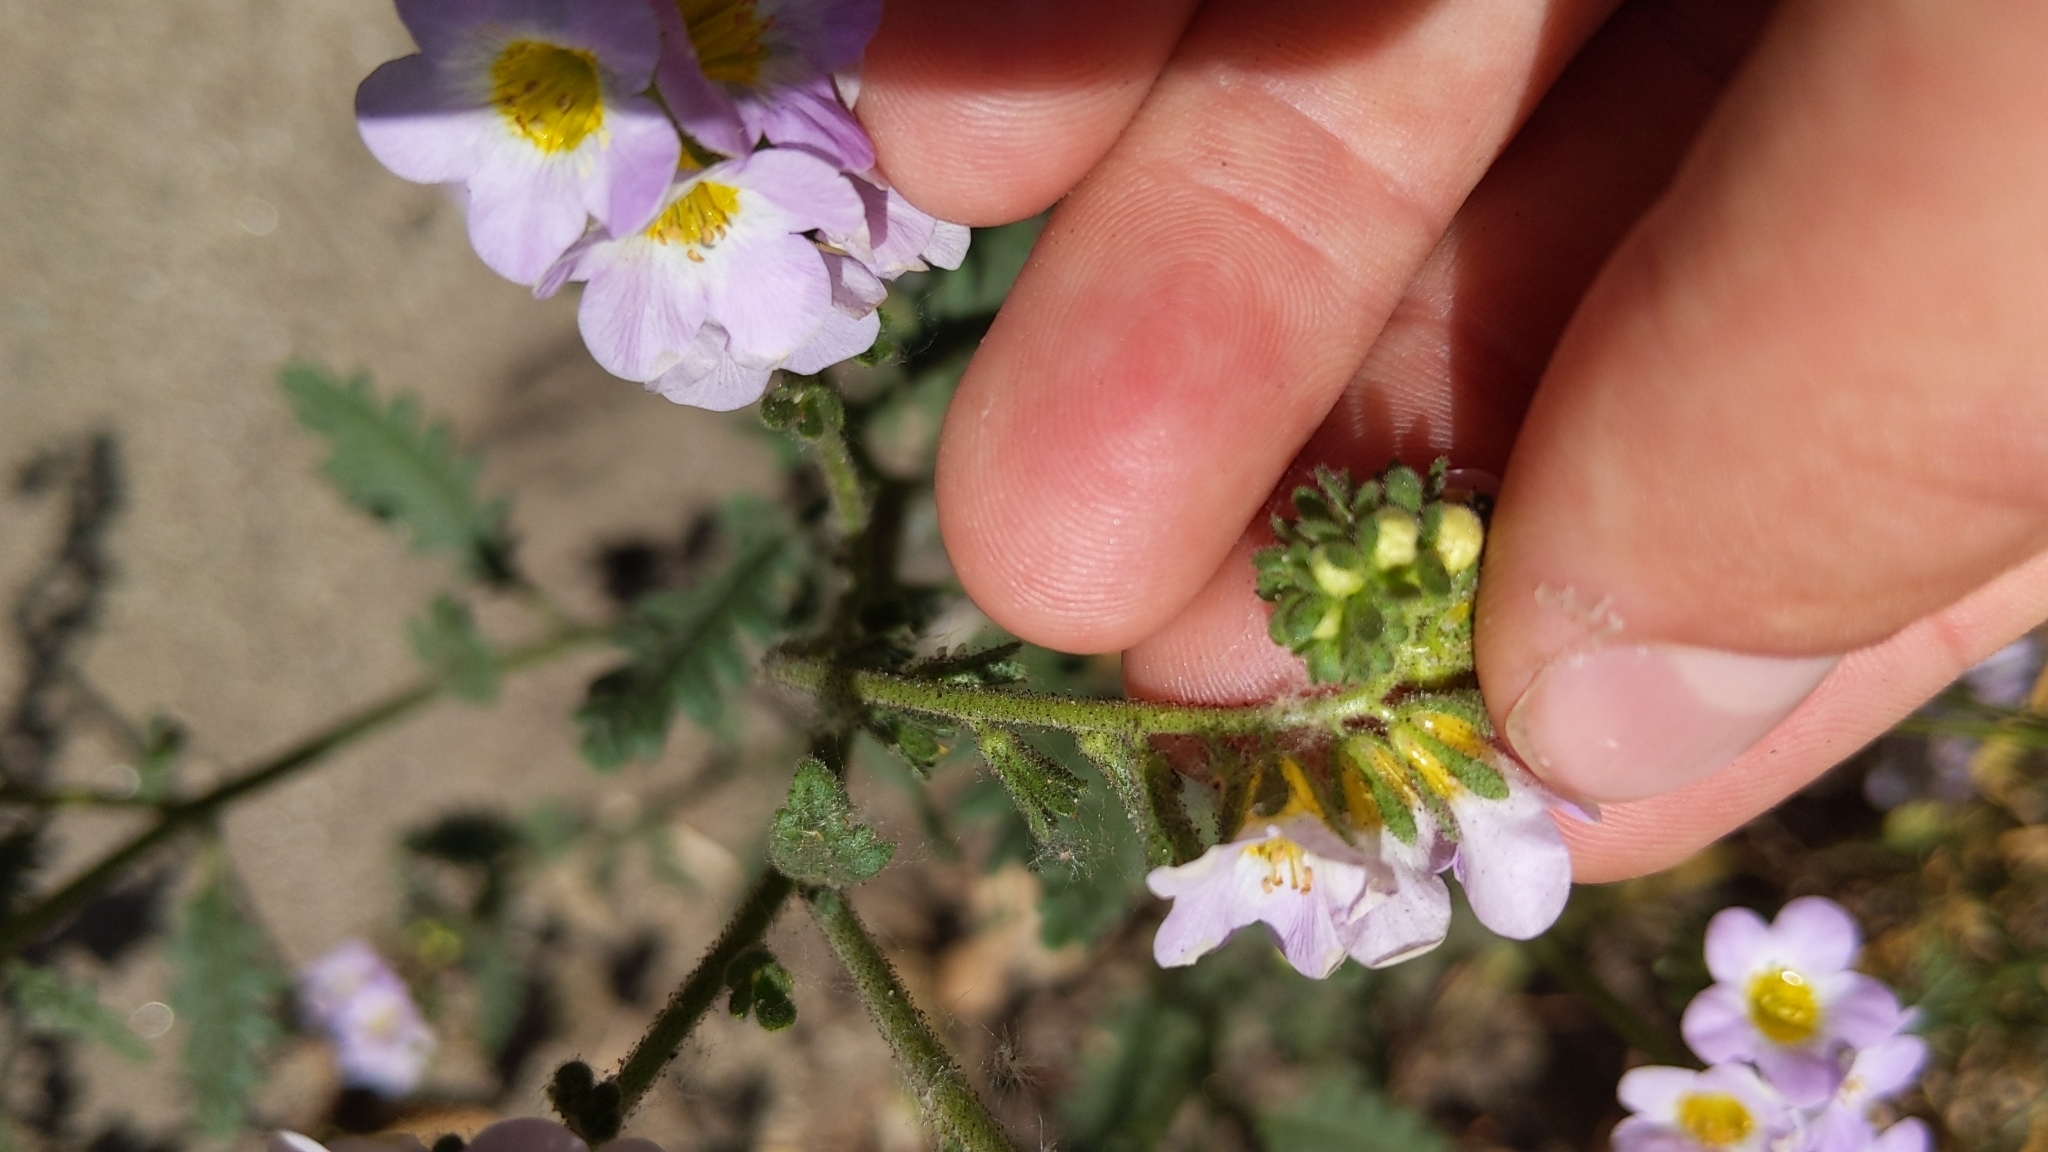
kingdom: Plantae
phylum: Tracheophyta
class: Magnoliopsida
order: Boraginales
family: Hydrophyllaceae
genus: Phacelia
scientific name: Phacelia brachyloba
